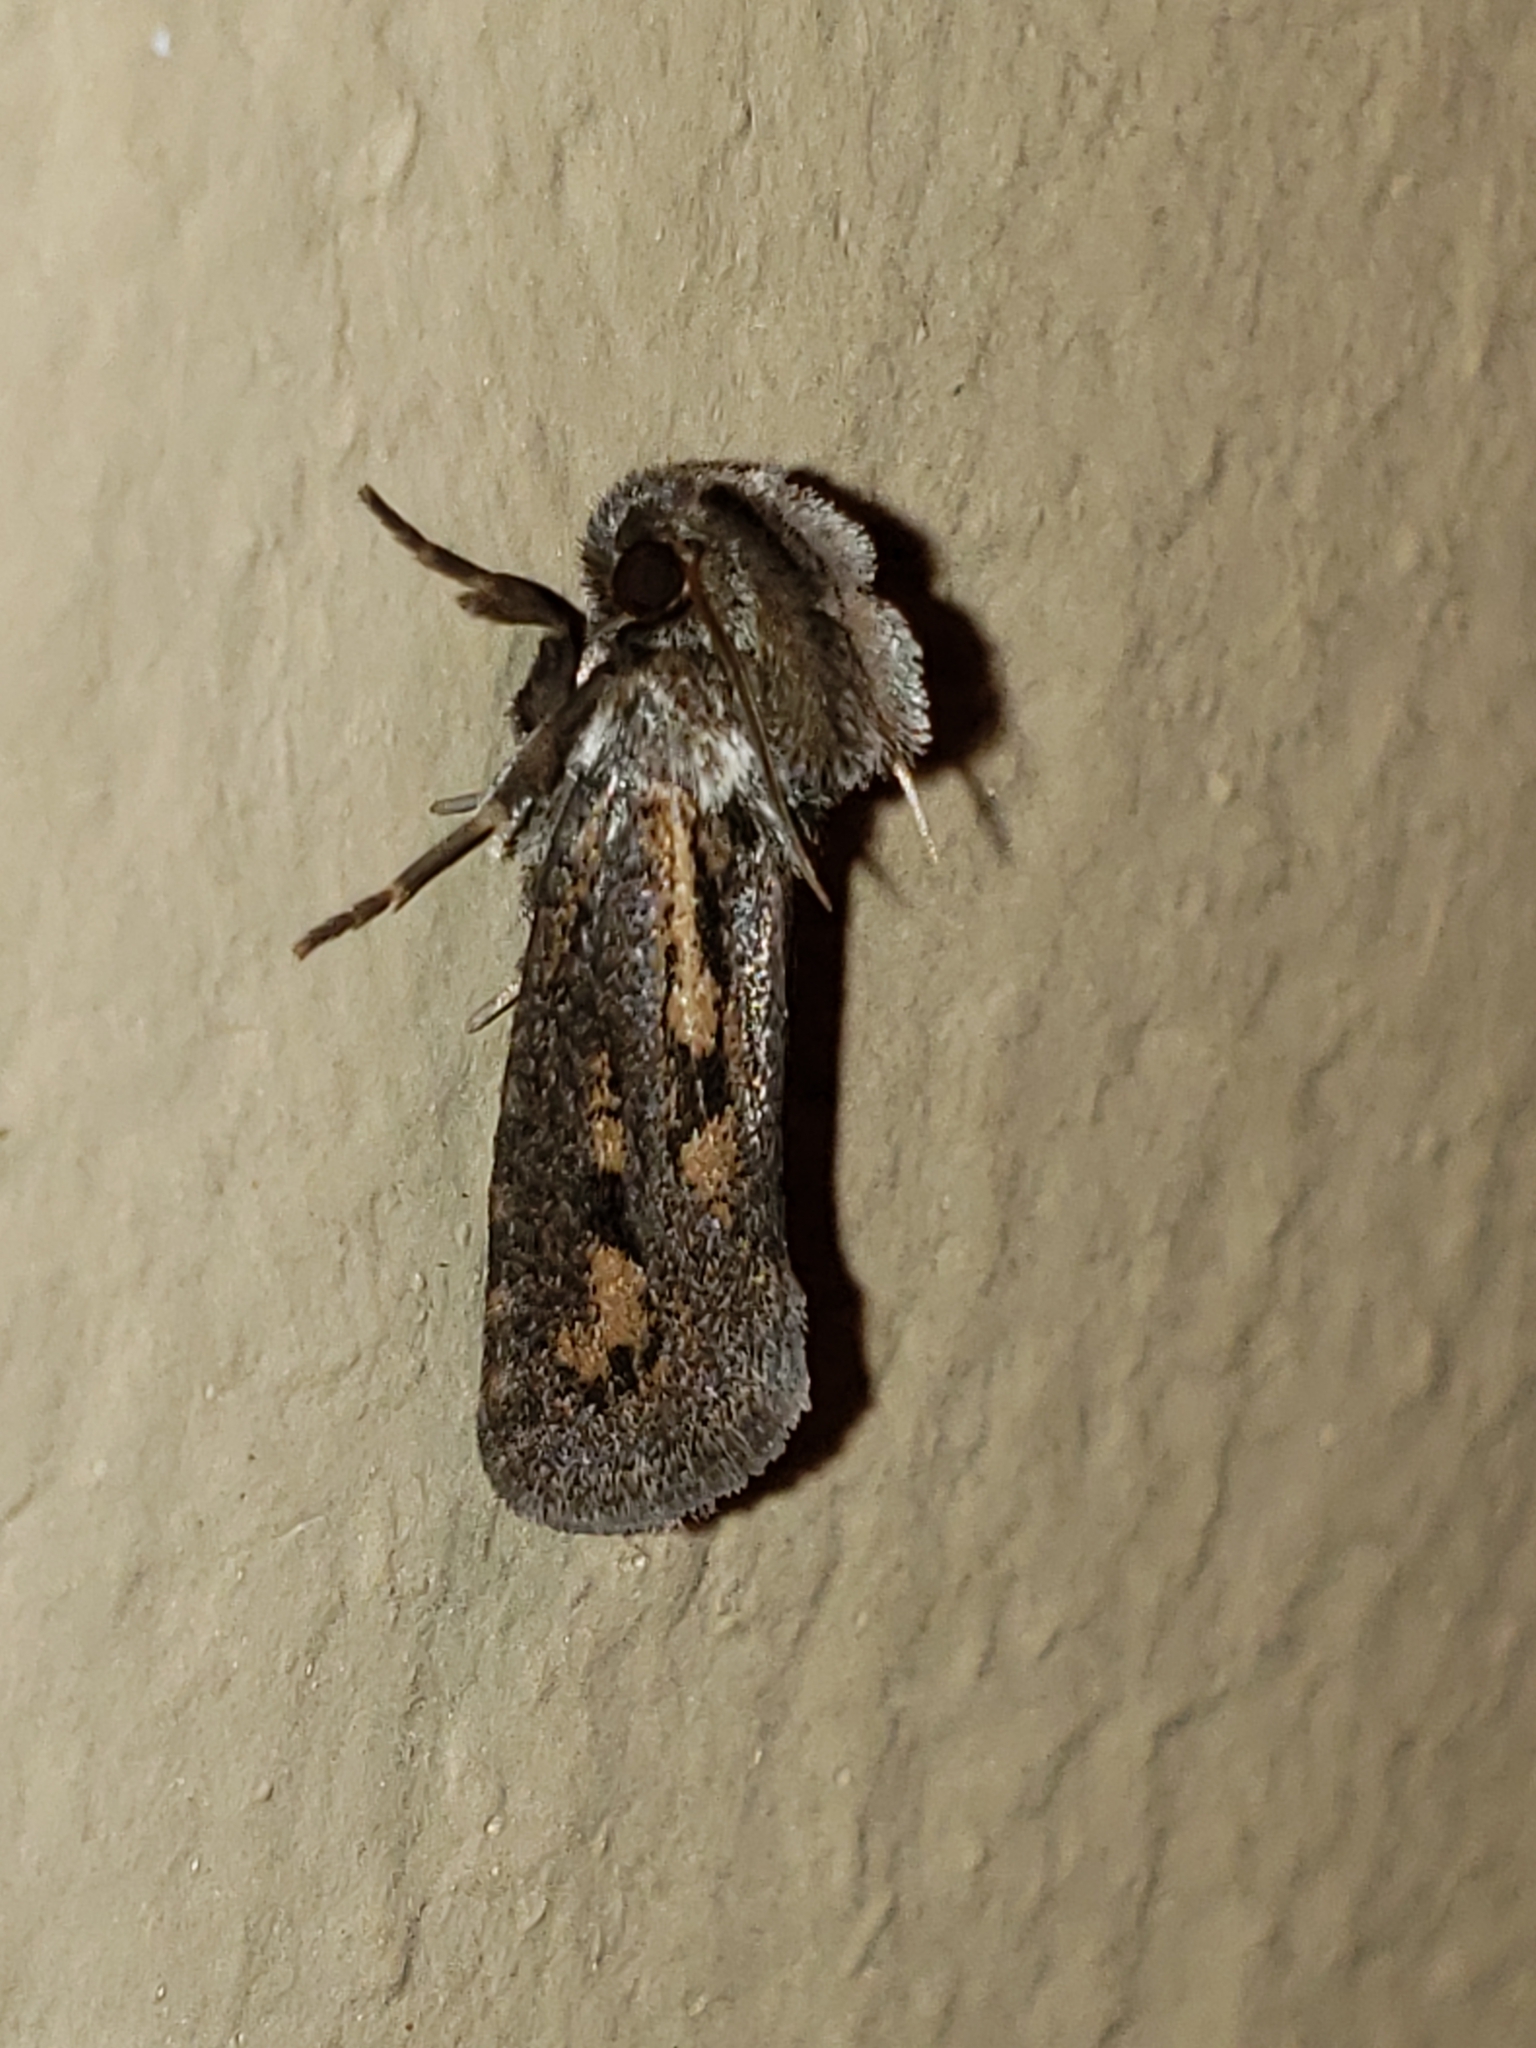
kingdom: Animalia
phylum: Arthropoda
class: Insecta
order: Lepidoptera
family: Tineidae
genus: Acrolophus
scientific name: Acrolophus popeanella
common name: Clemens' grass tubeworm moth
